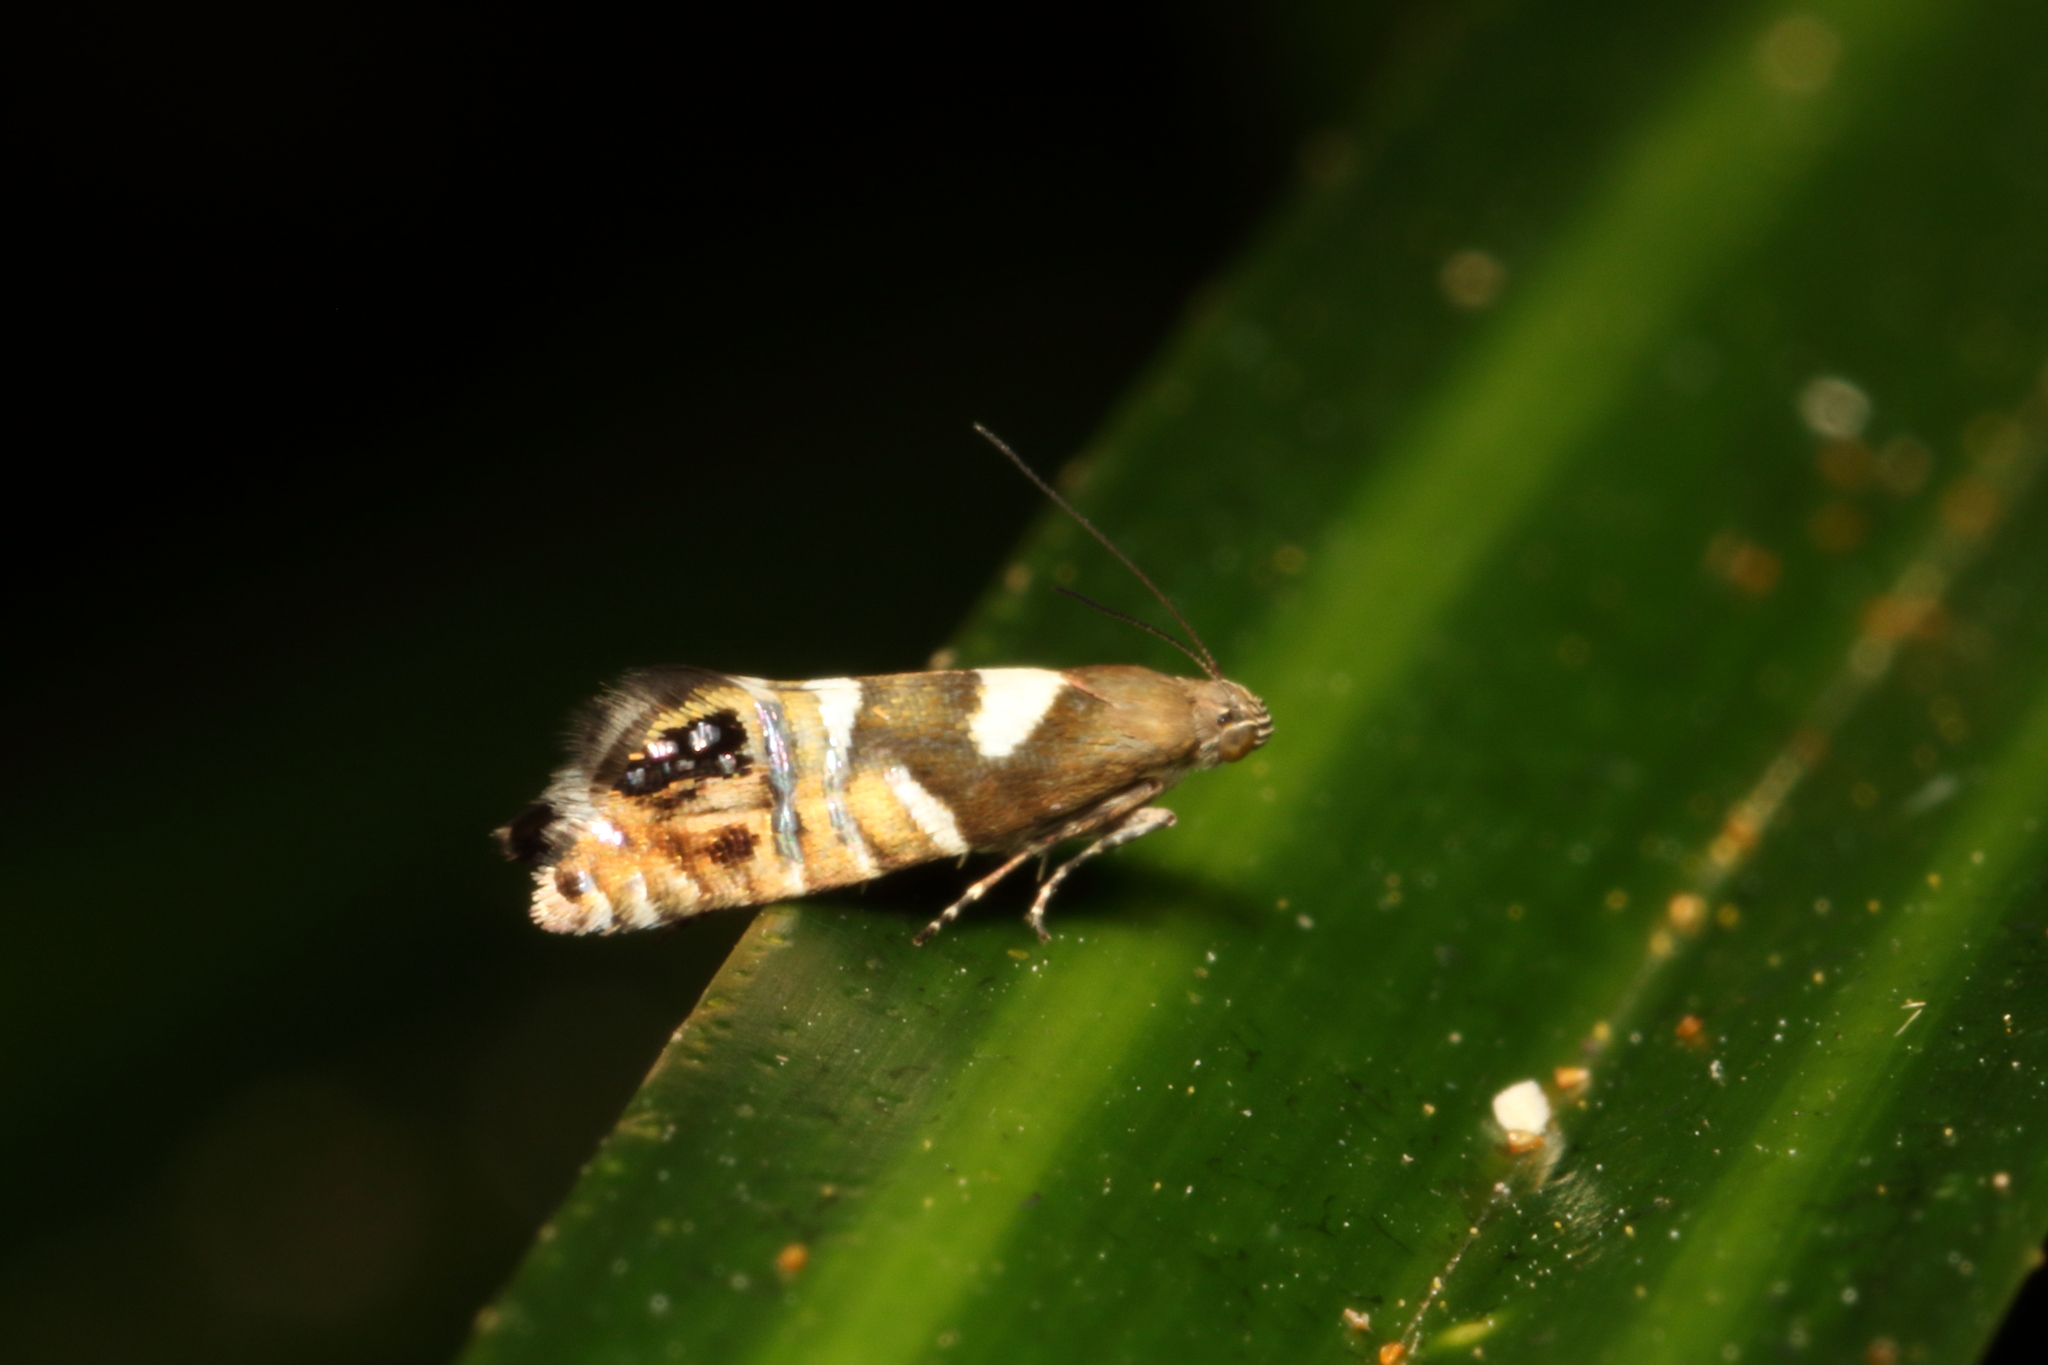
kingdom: Animalia
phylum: Arthropoda
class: Insecta
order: Lepidoptera
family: Glyphipterigidae
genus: Glyphipterix
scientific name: Glyphipterix acronoma
